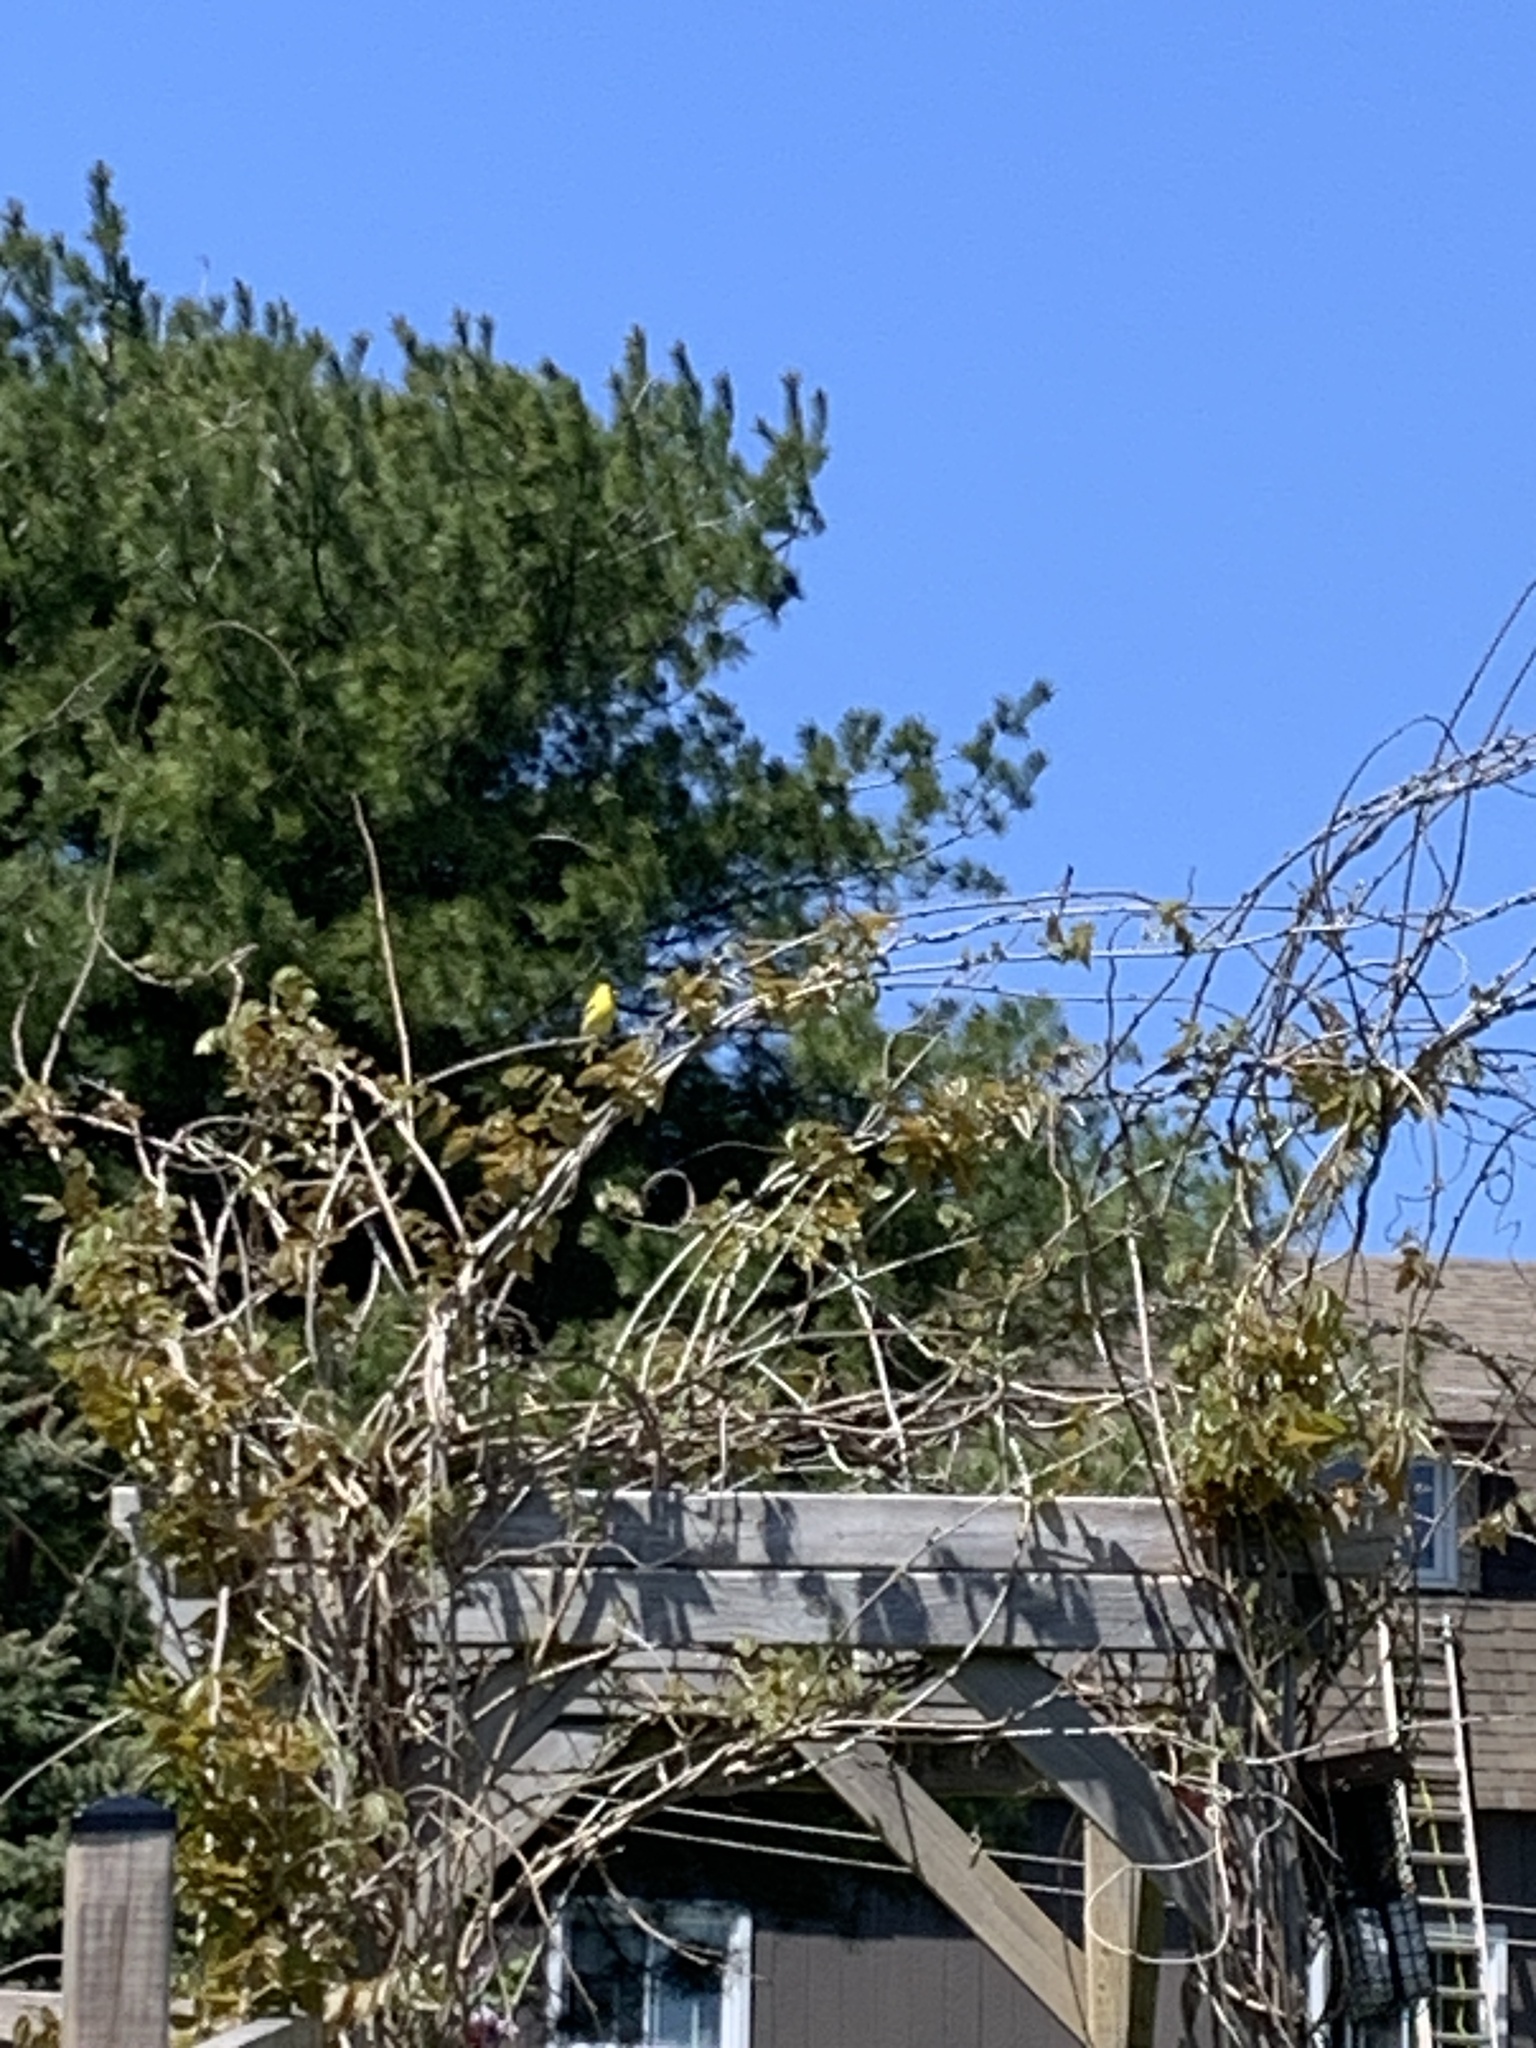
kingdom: Animalia
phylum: Chordata
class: Aves
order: Passeriformes
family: Fringillidae
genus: Spinus
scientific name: Spinus tristis
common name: American goldfinch
